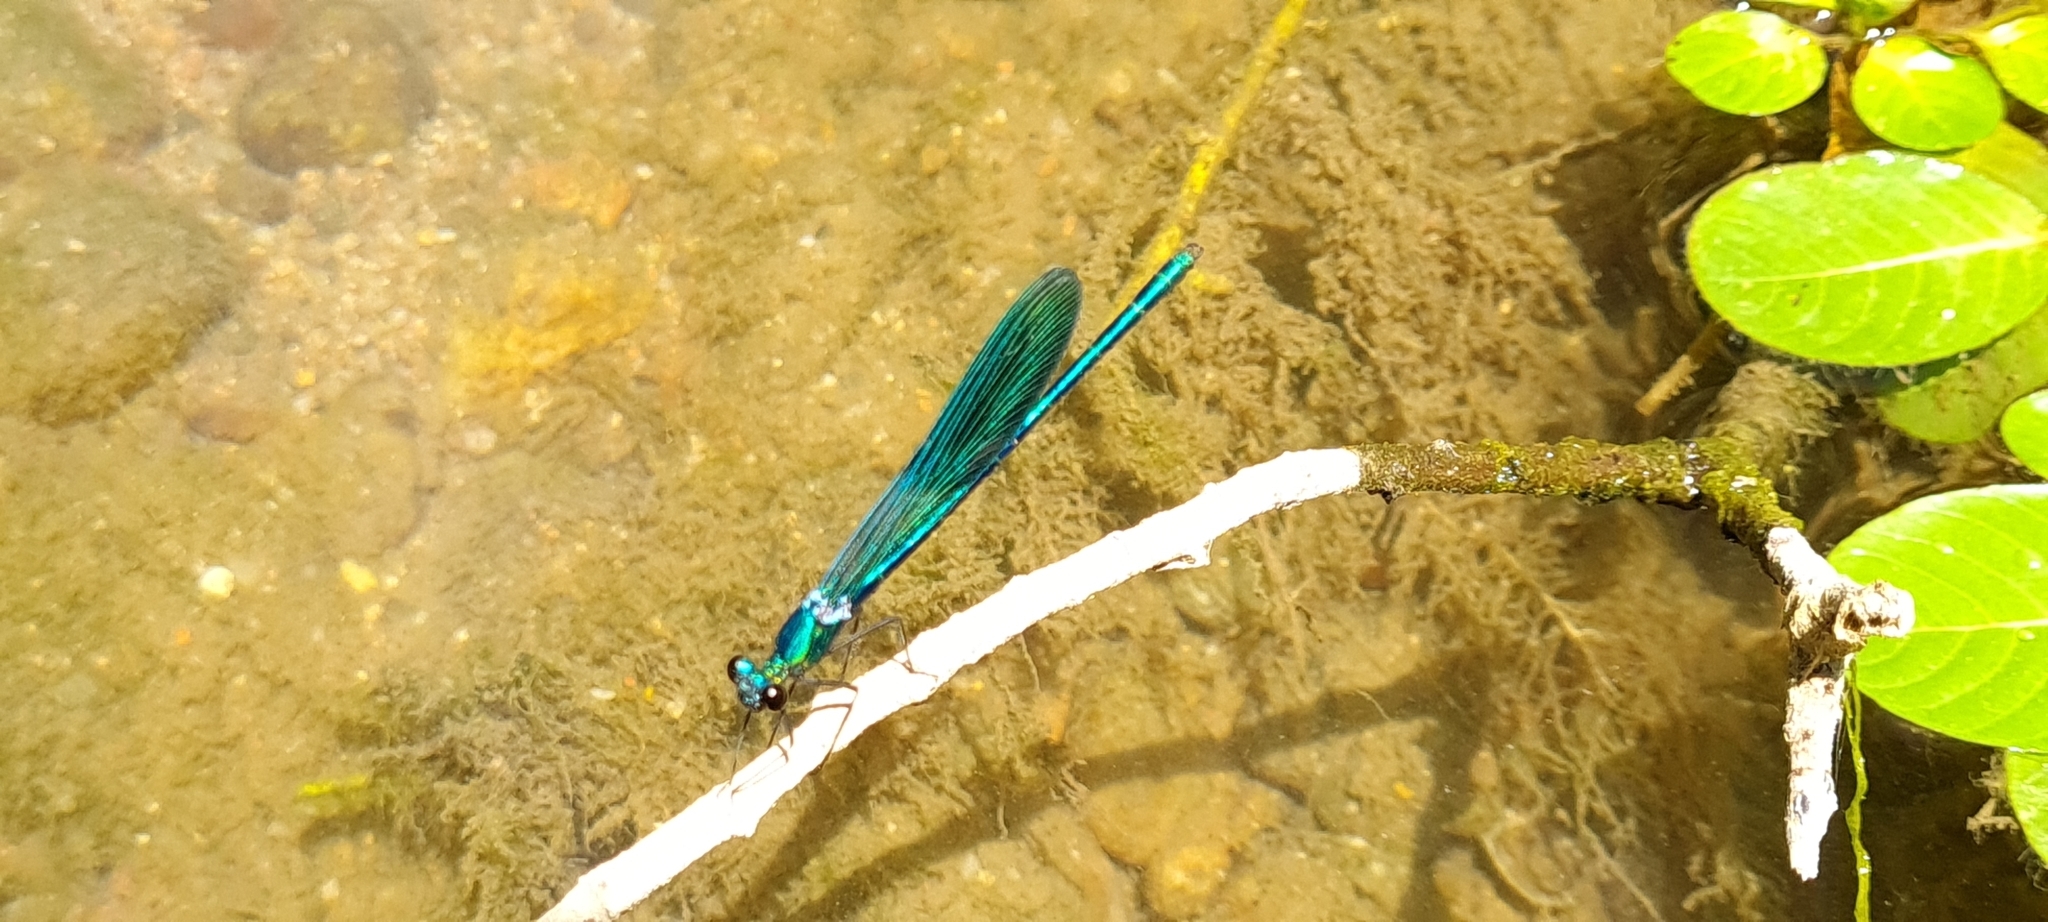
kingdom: Animalia
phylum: Arthropoda
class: Insecta
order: Odonata
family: Calopterygidae
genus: Calopteryx
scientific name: Calopteryx xanthostoma
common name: Western demoiselle
